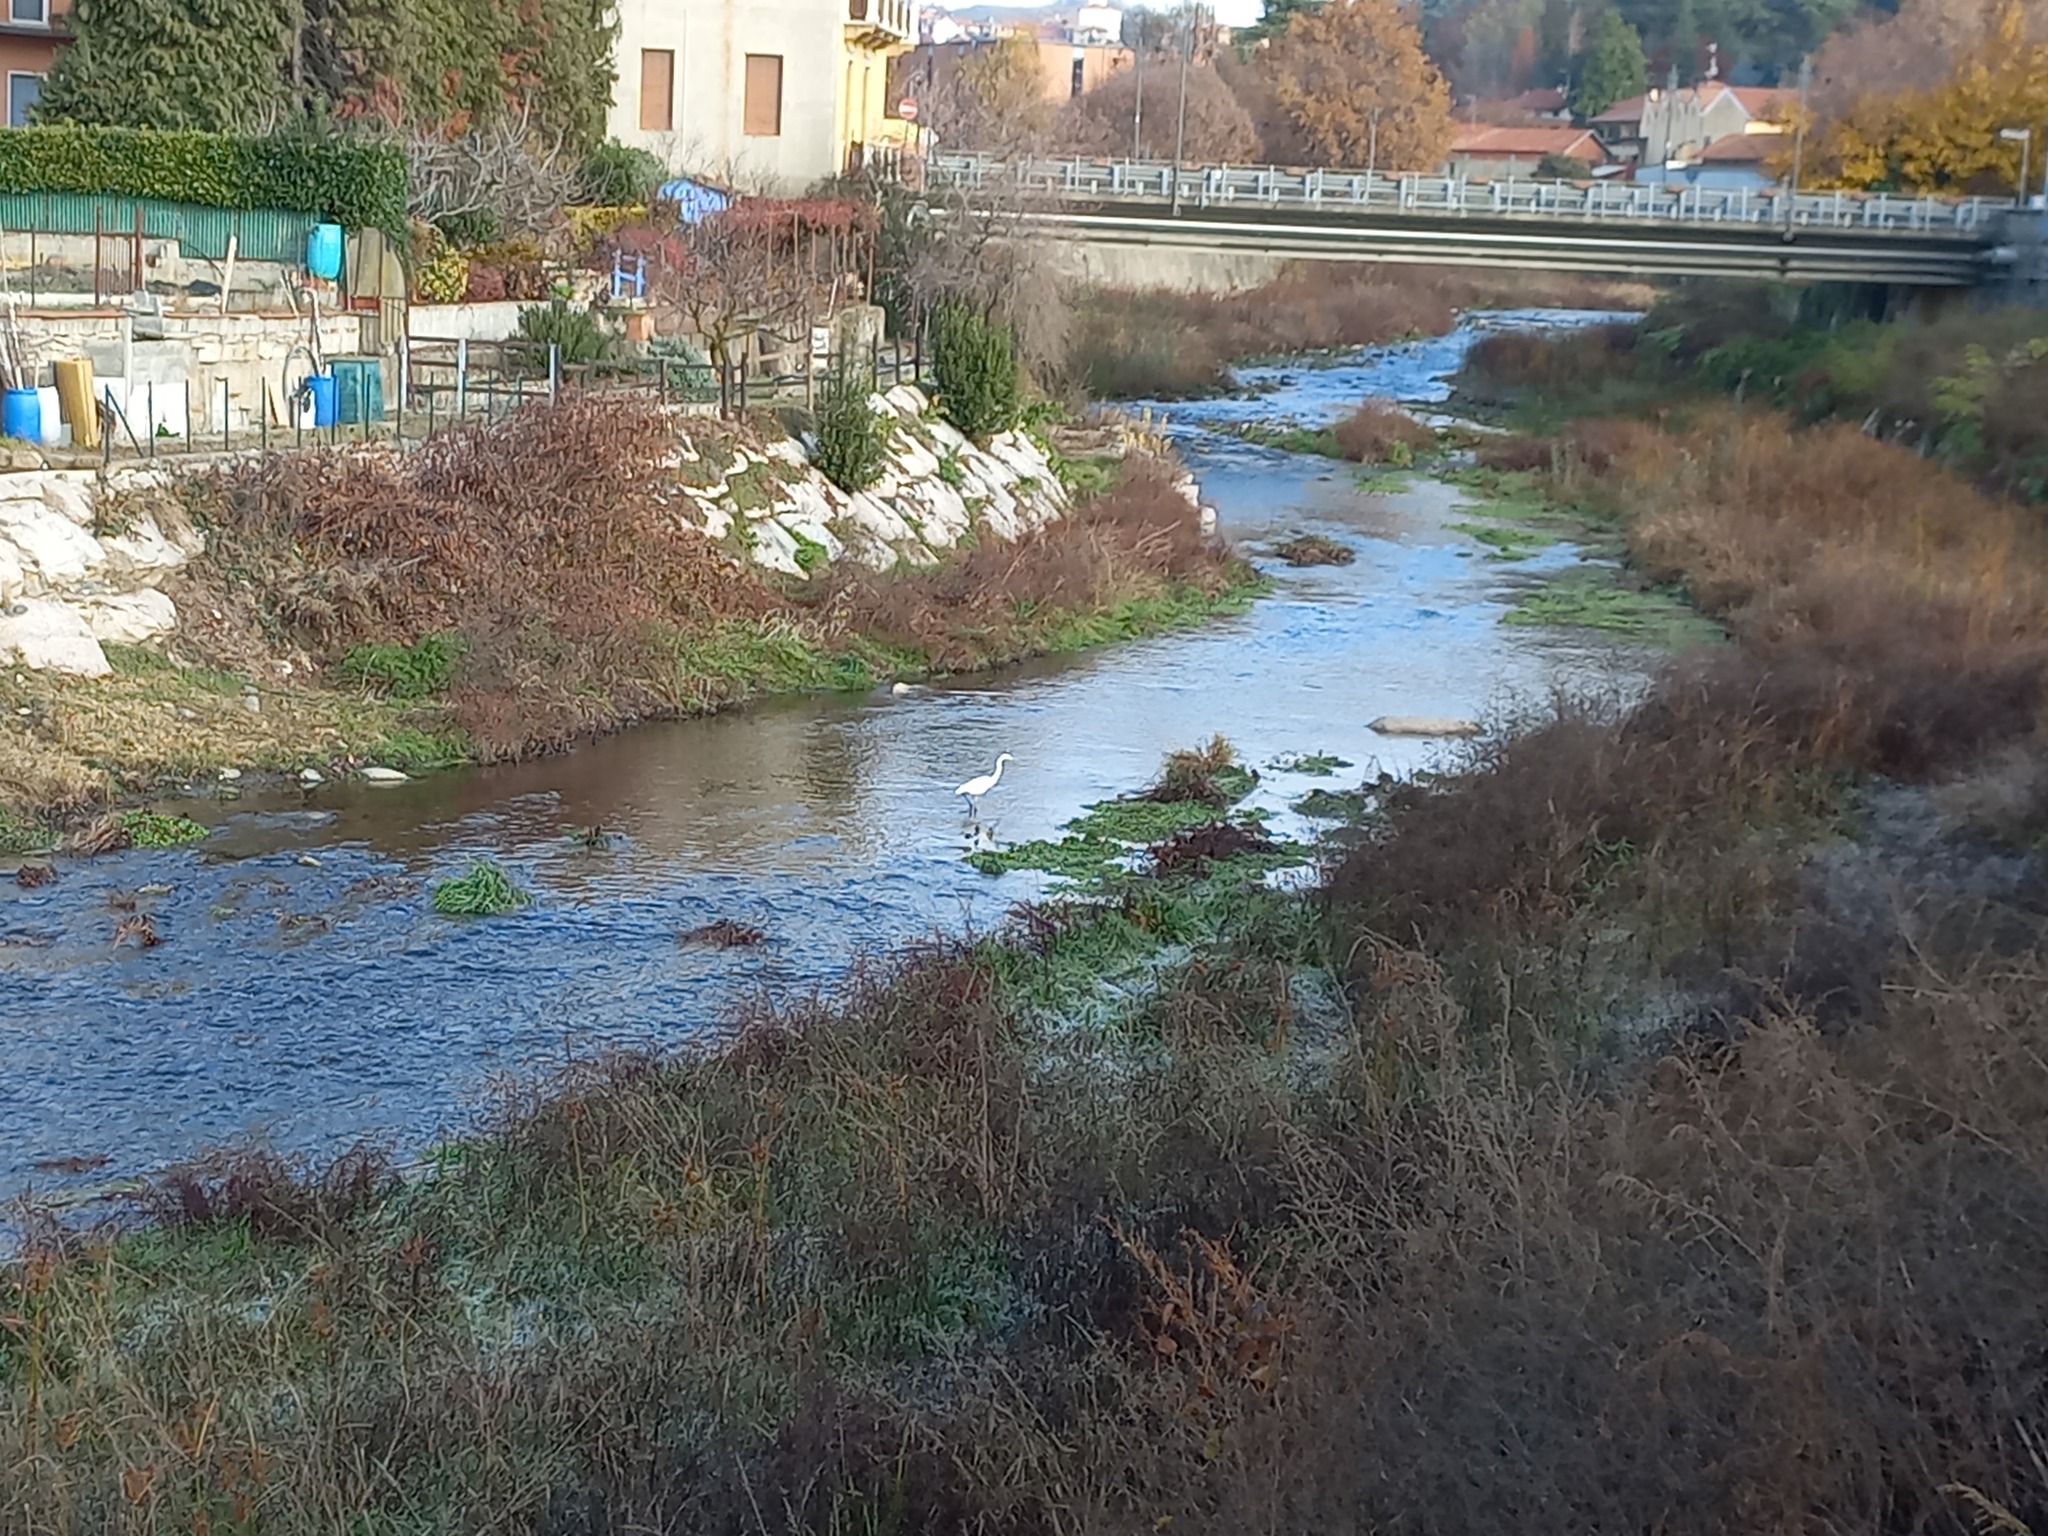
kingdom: Animalia
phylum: Chordata
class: Aves
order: Pelecaniformes
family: Ardeidae
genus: Ardea
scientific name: Ardea alba
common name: Great egret
